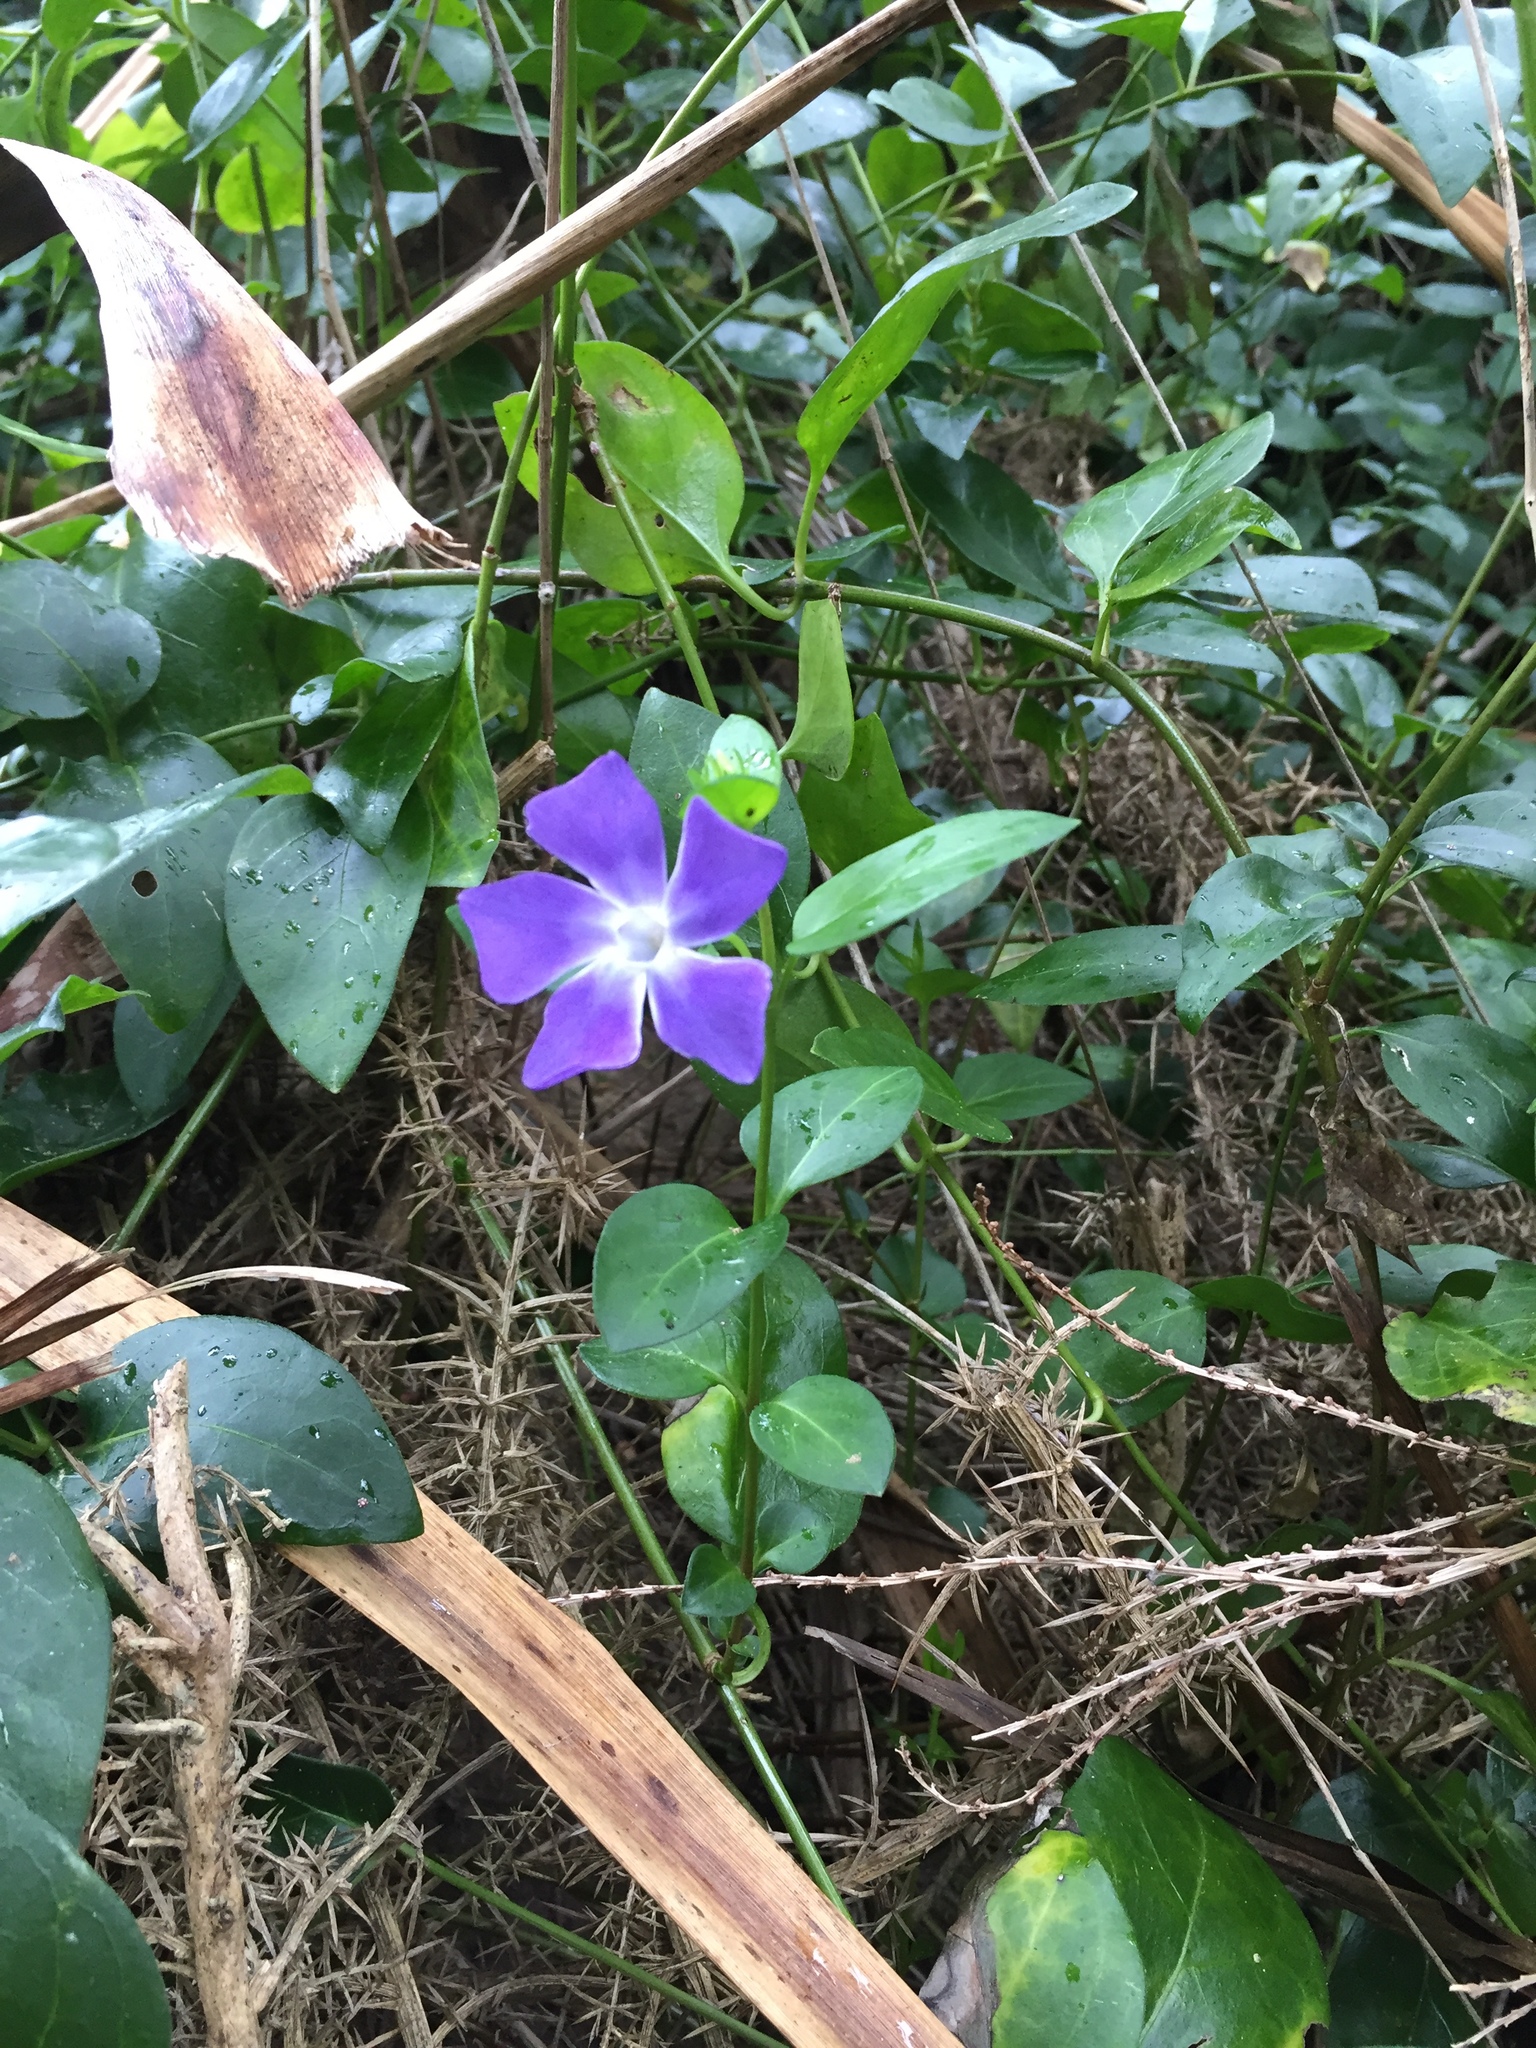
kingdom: Plantae
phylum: Tracheophyta
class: Magnoliopsida
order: Gentianales
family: Apocynaceae
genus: Vinca
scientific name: Vinca major
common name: Greater periwinkle
